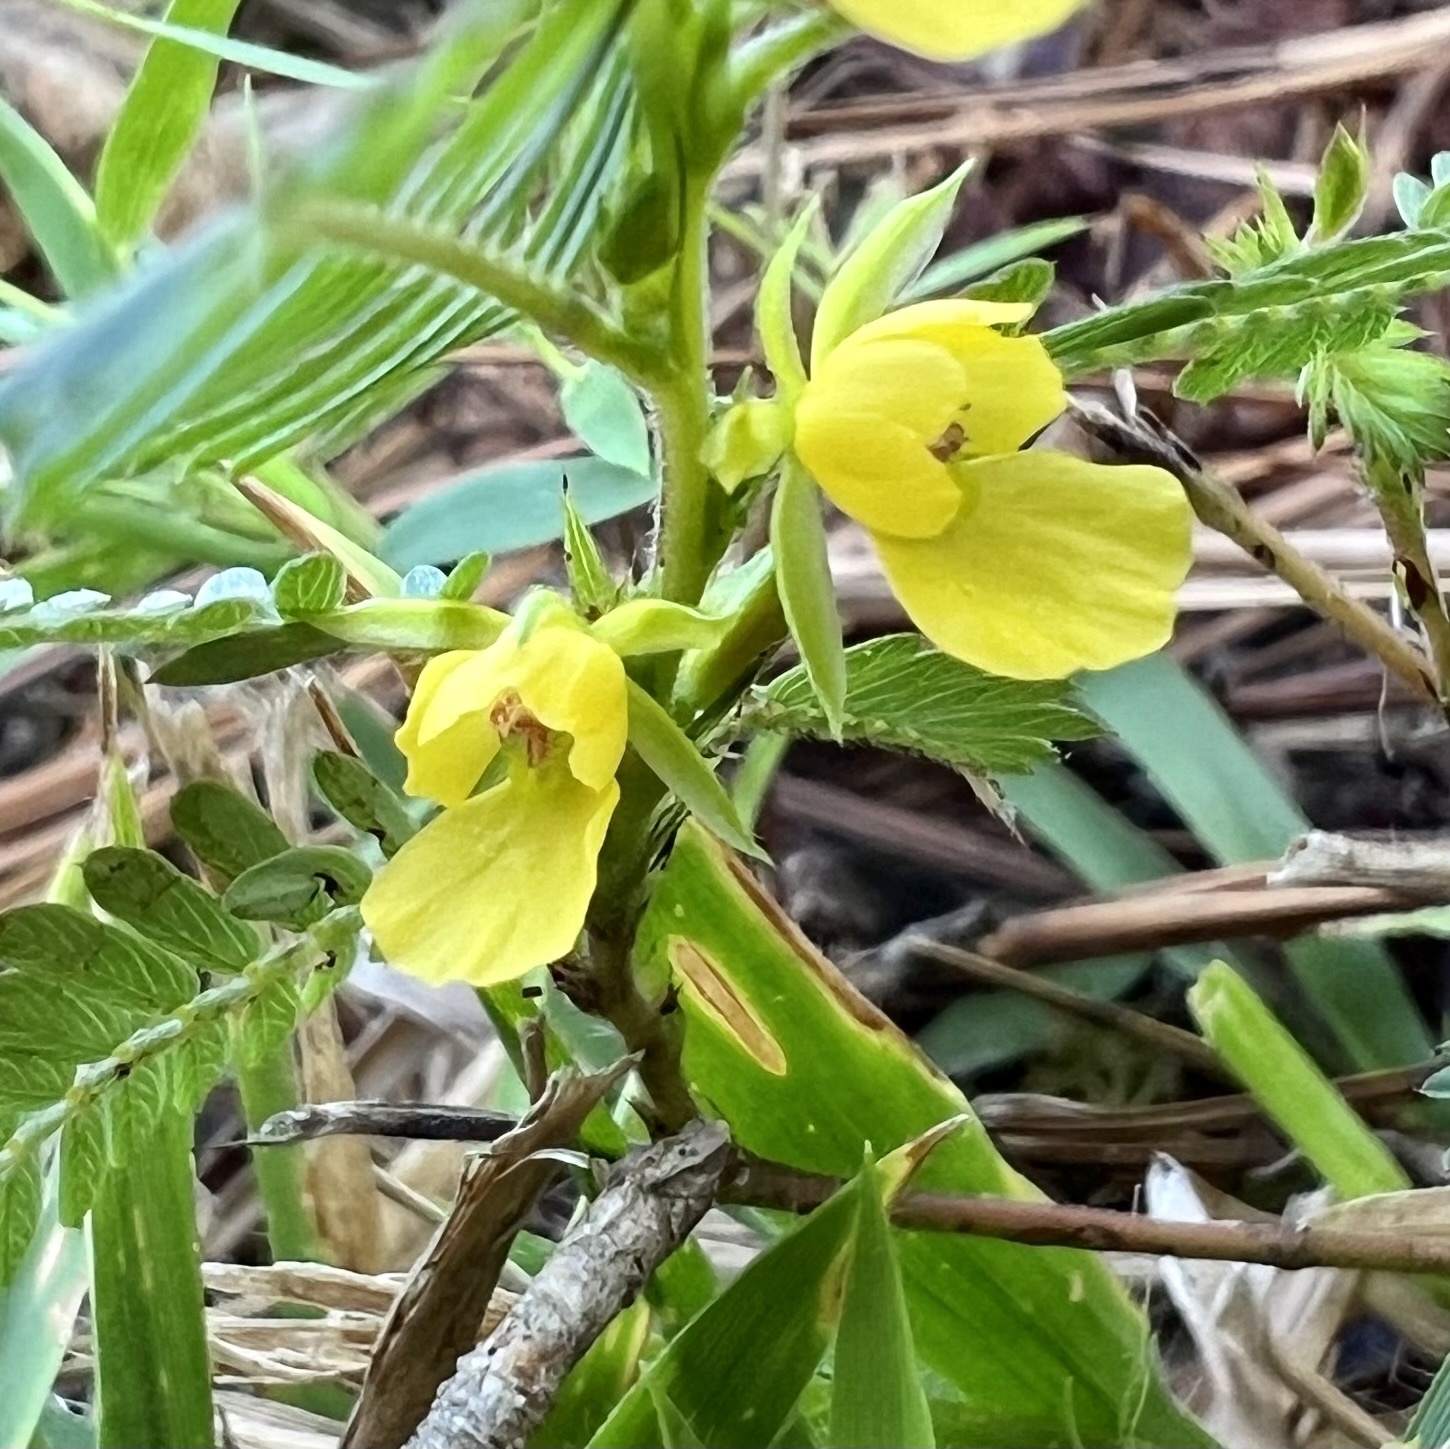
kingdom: Plantae
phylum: Tracheophyta
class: Magnoliopsida
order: Fabales
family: Fabaceae
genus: Chamaecrista
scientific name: Chamaecrista nictitans
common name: Sensitive cassia
